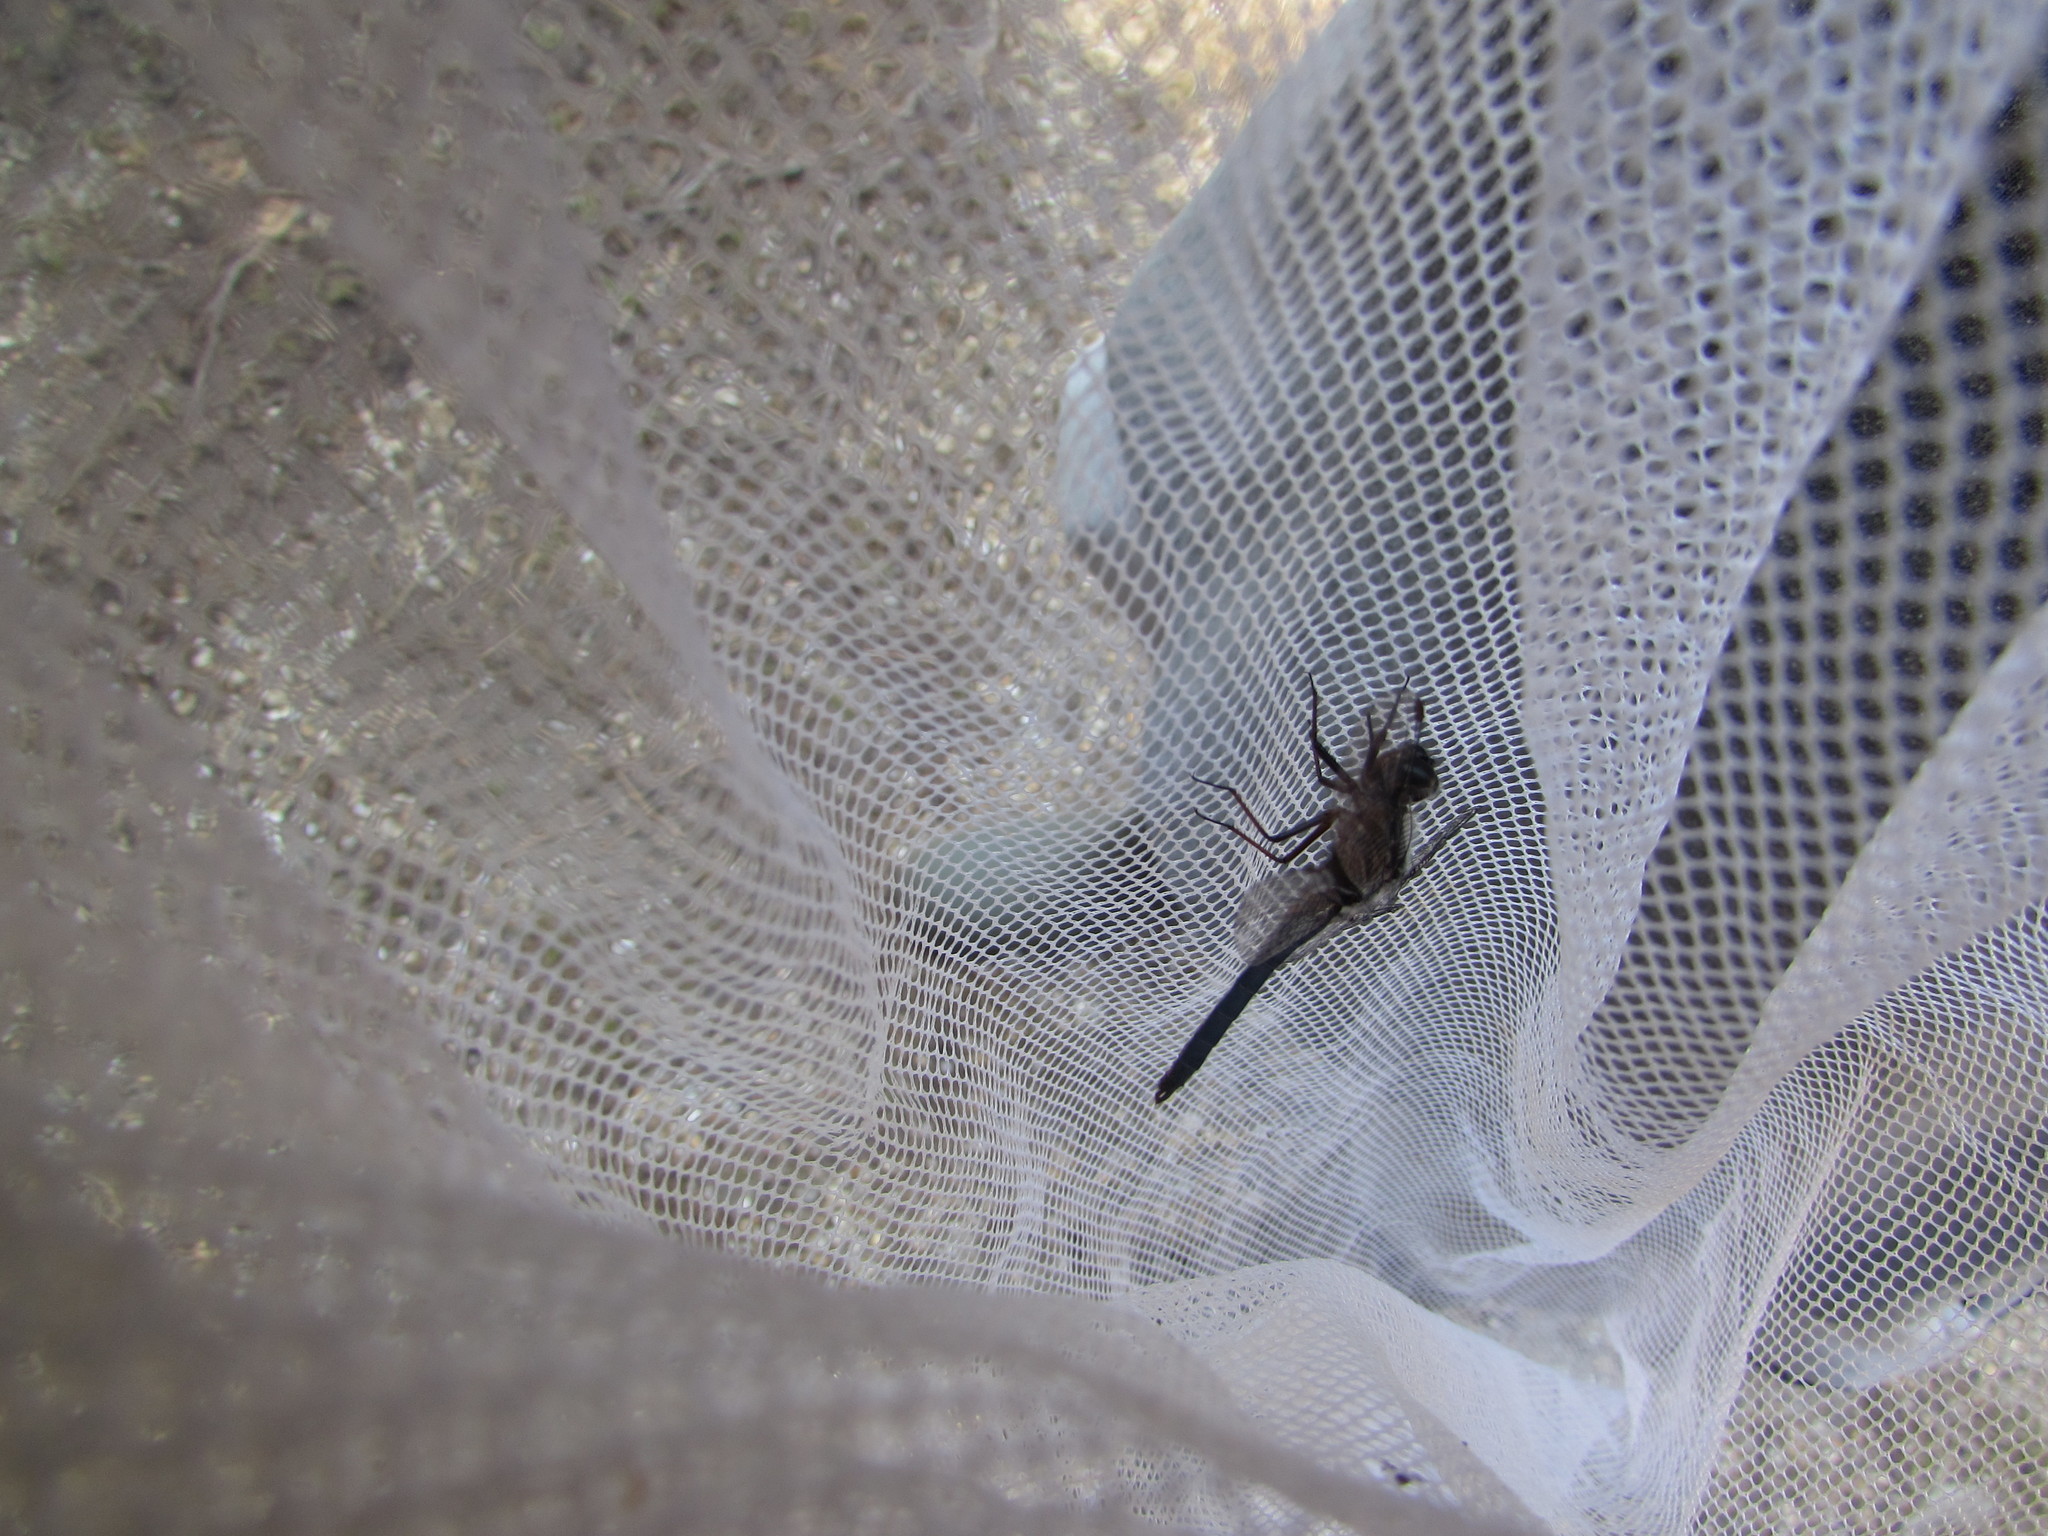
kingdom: Animalia
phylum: Arthropoda
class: Insecta
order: Odonata
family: Libellulidae
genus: Ladona
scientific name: Ladona deplanata
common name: Blue corporal
